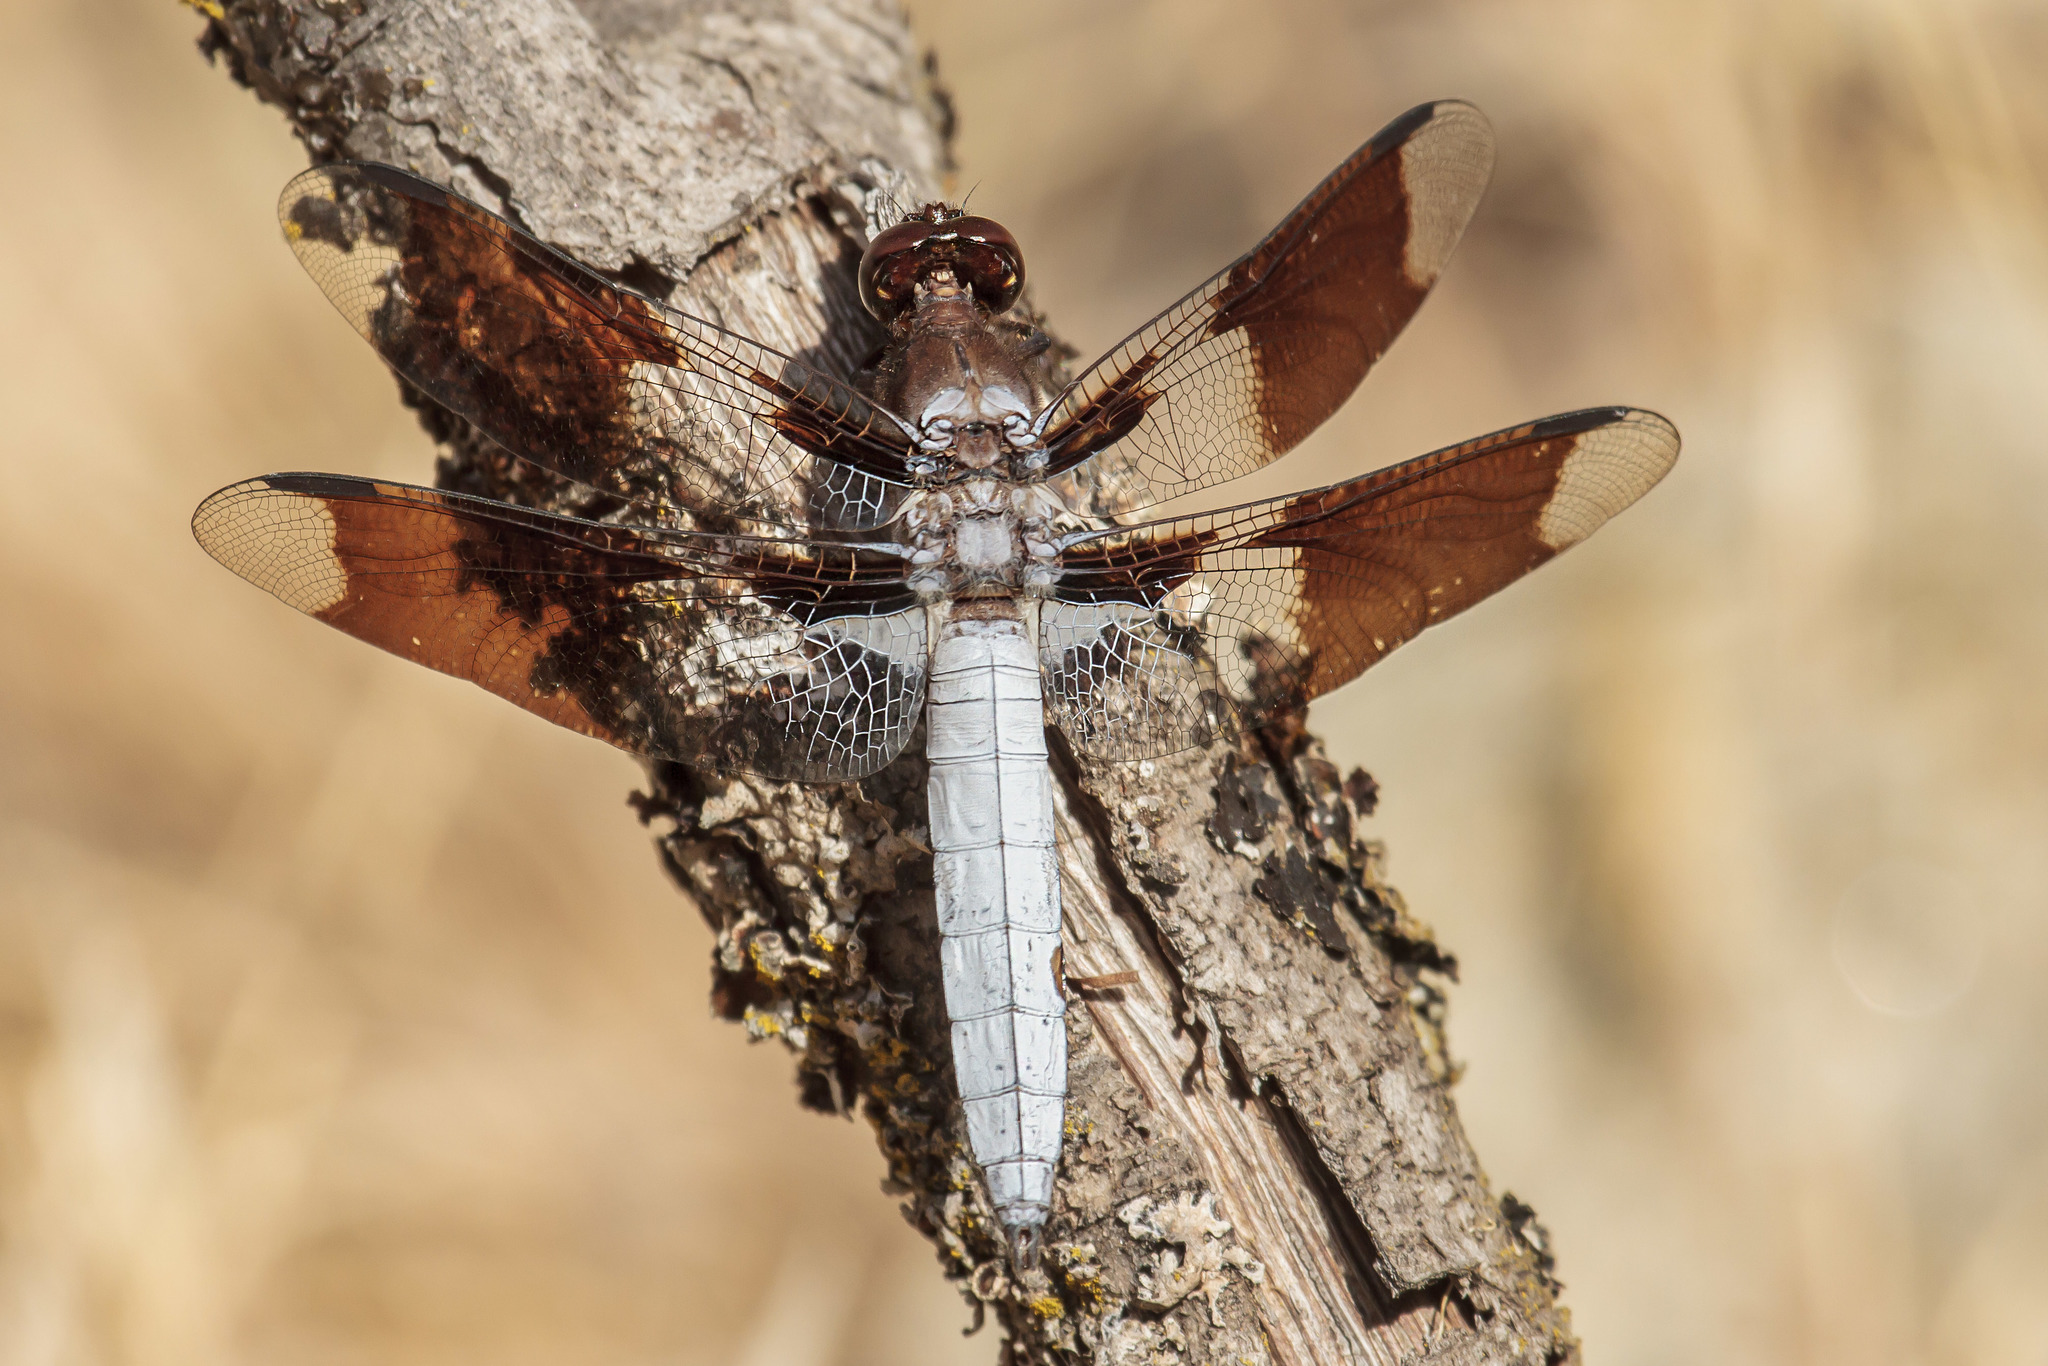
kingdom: Animalia
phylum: Arthropoda
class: Insecta
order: Odonata
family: Libellulidae
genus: Plathemis
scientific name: Plathemis lydia
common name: Common whitetail
